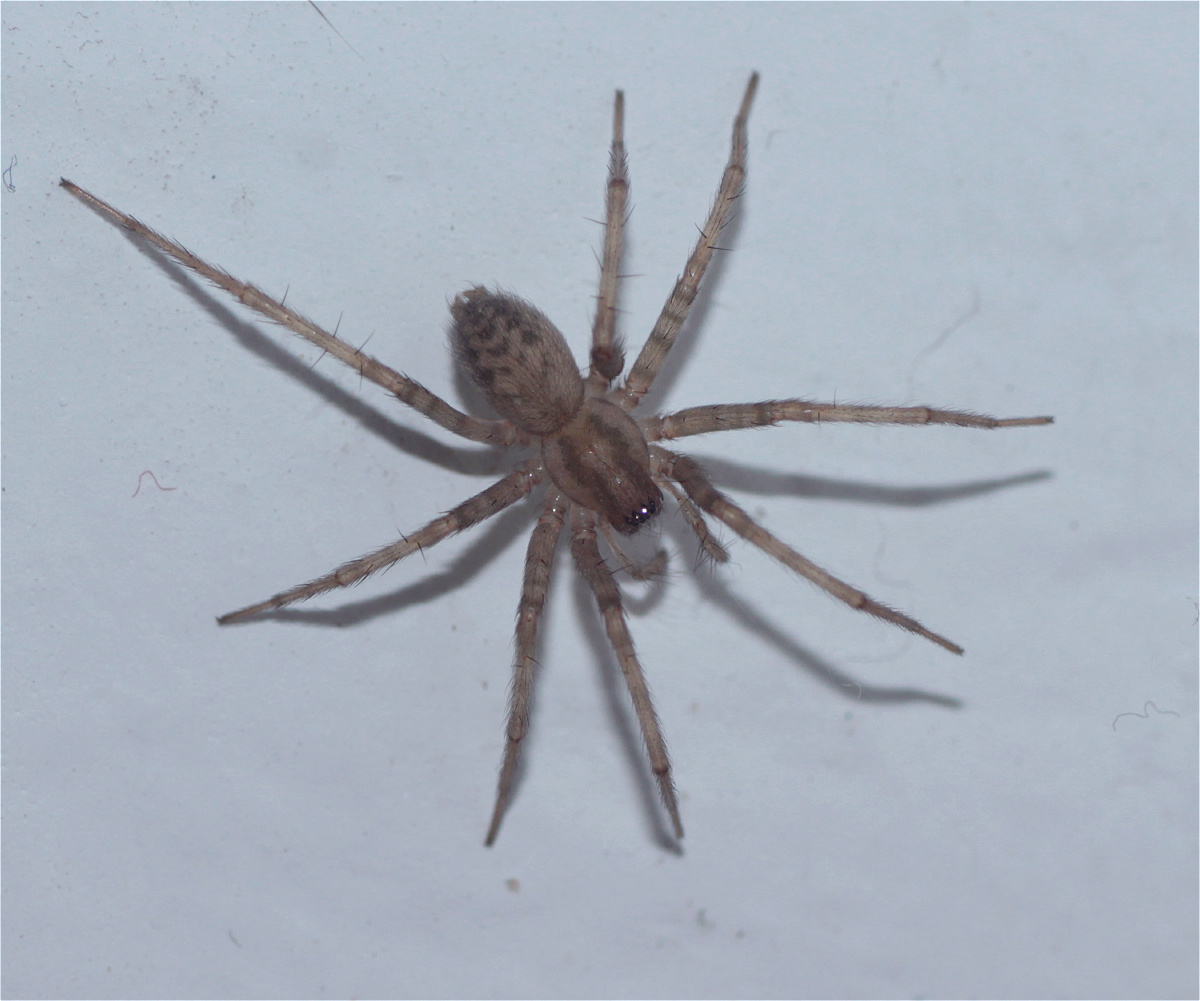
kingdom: Animalia
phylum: Arthropoda
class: Arachnida
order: Araneae
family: Agelenidae
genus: Tegenaria
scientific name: Tegenaria domestica
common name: Barn funnel weaver
